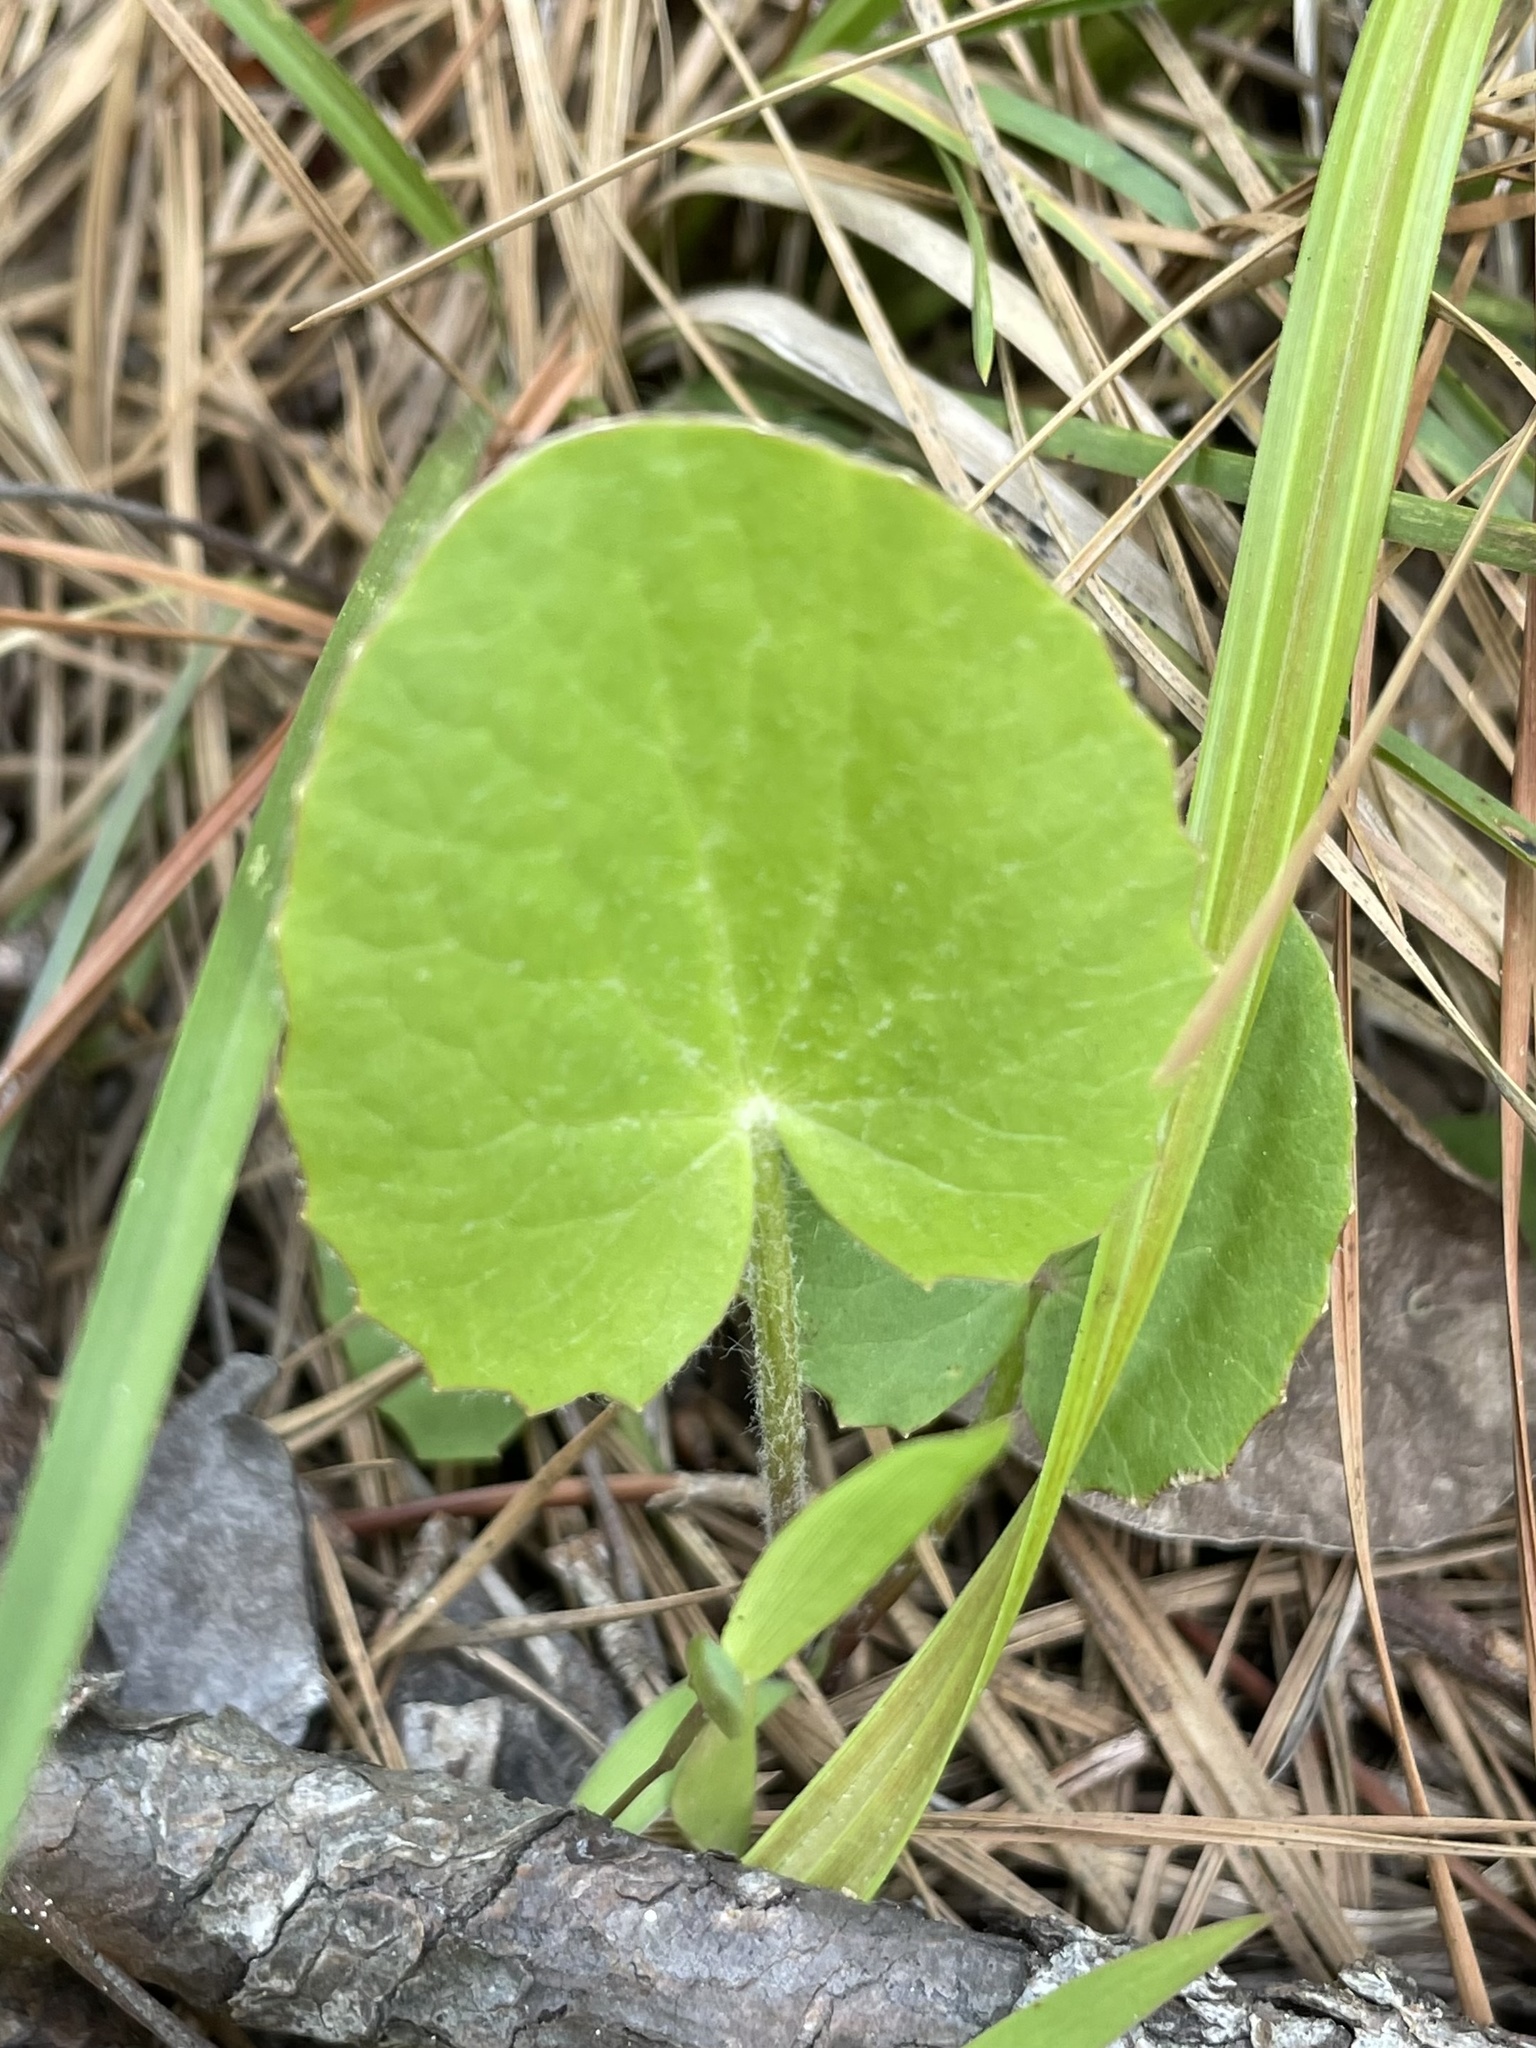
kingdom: Plantae
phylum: Tracheophyta
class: Magnoliopsida
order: Apiales
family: Apiaceae
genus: Centella
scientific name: Centella erecta
